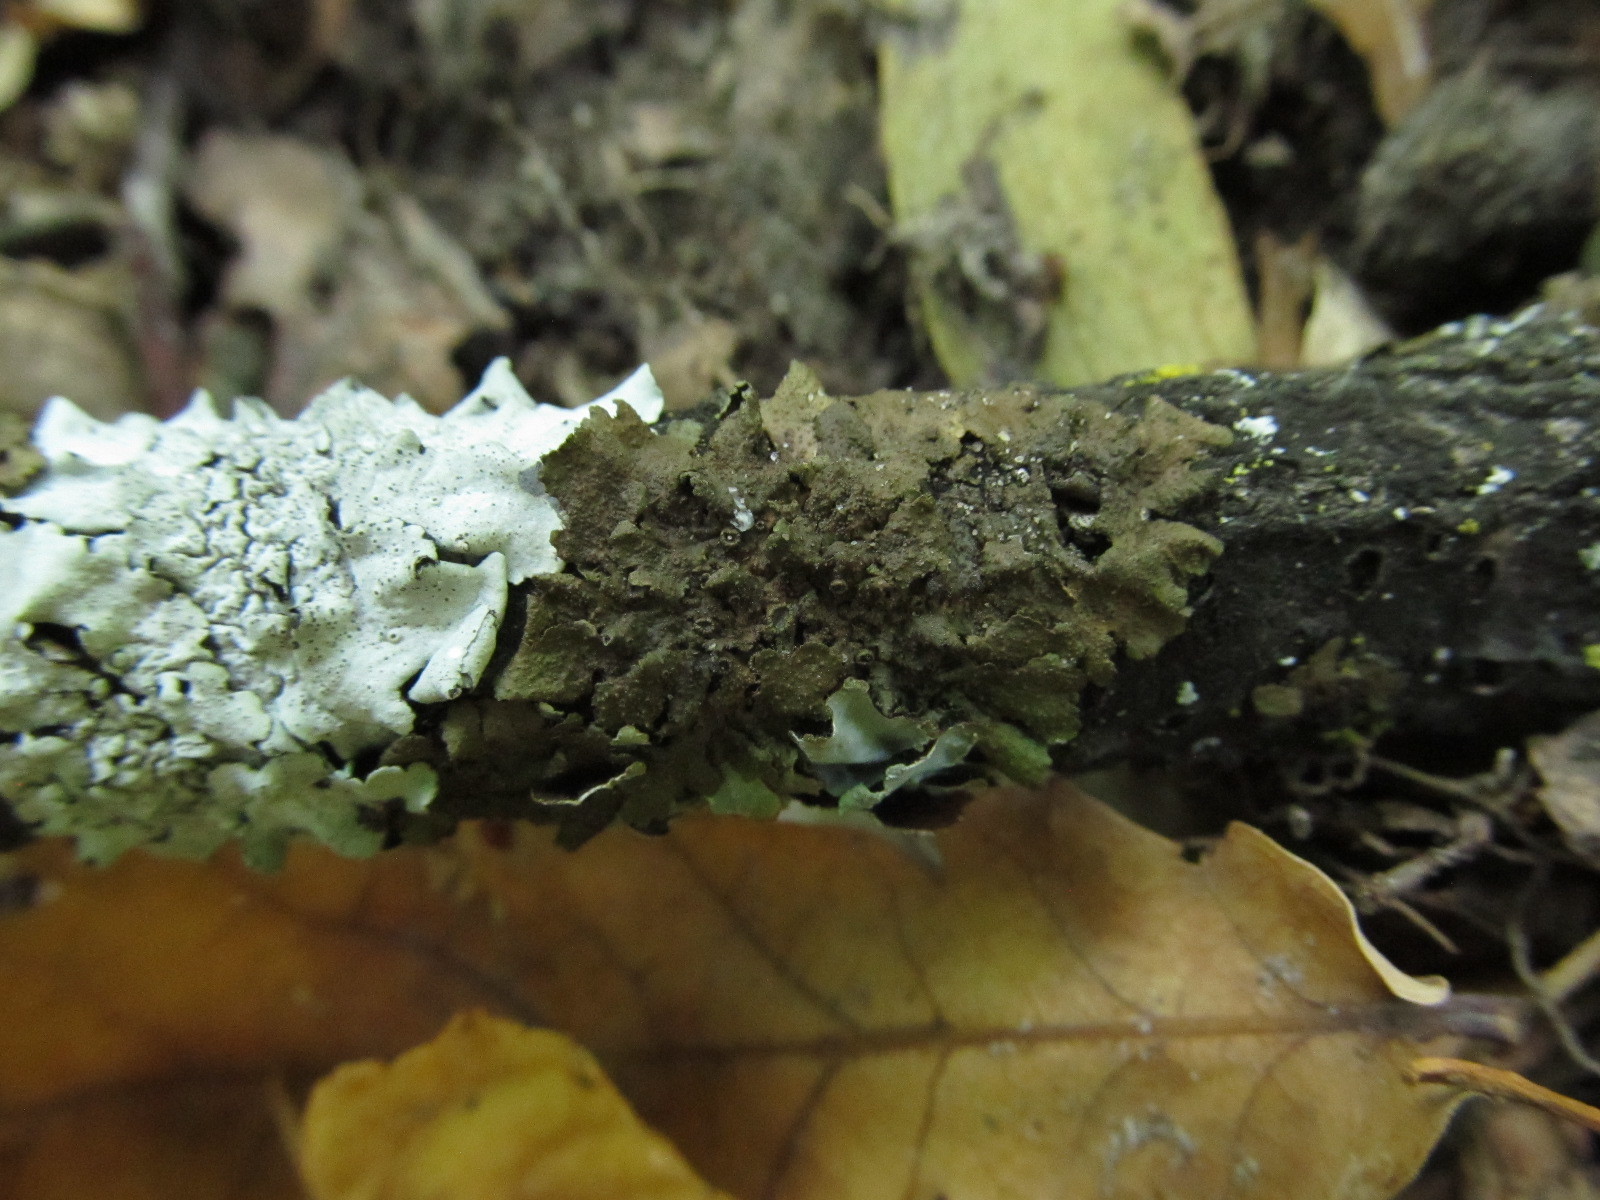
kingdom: Fungi
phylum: Ascomycota
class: Lecanoromycetes
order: Lecanorales
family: Parmeliaceae
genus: Melanohalea
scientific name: Melanohalea exasperata
